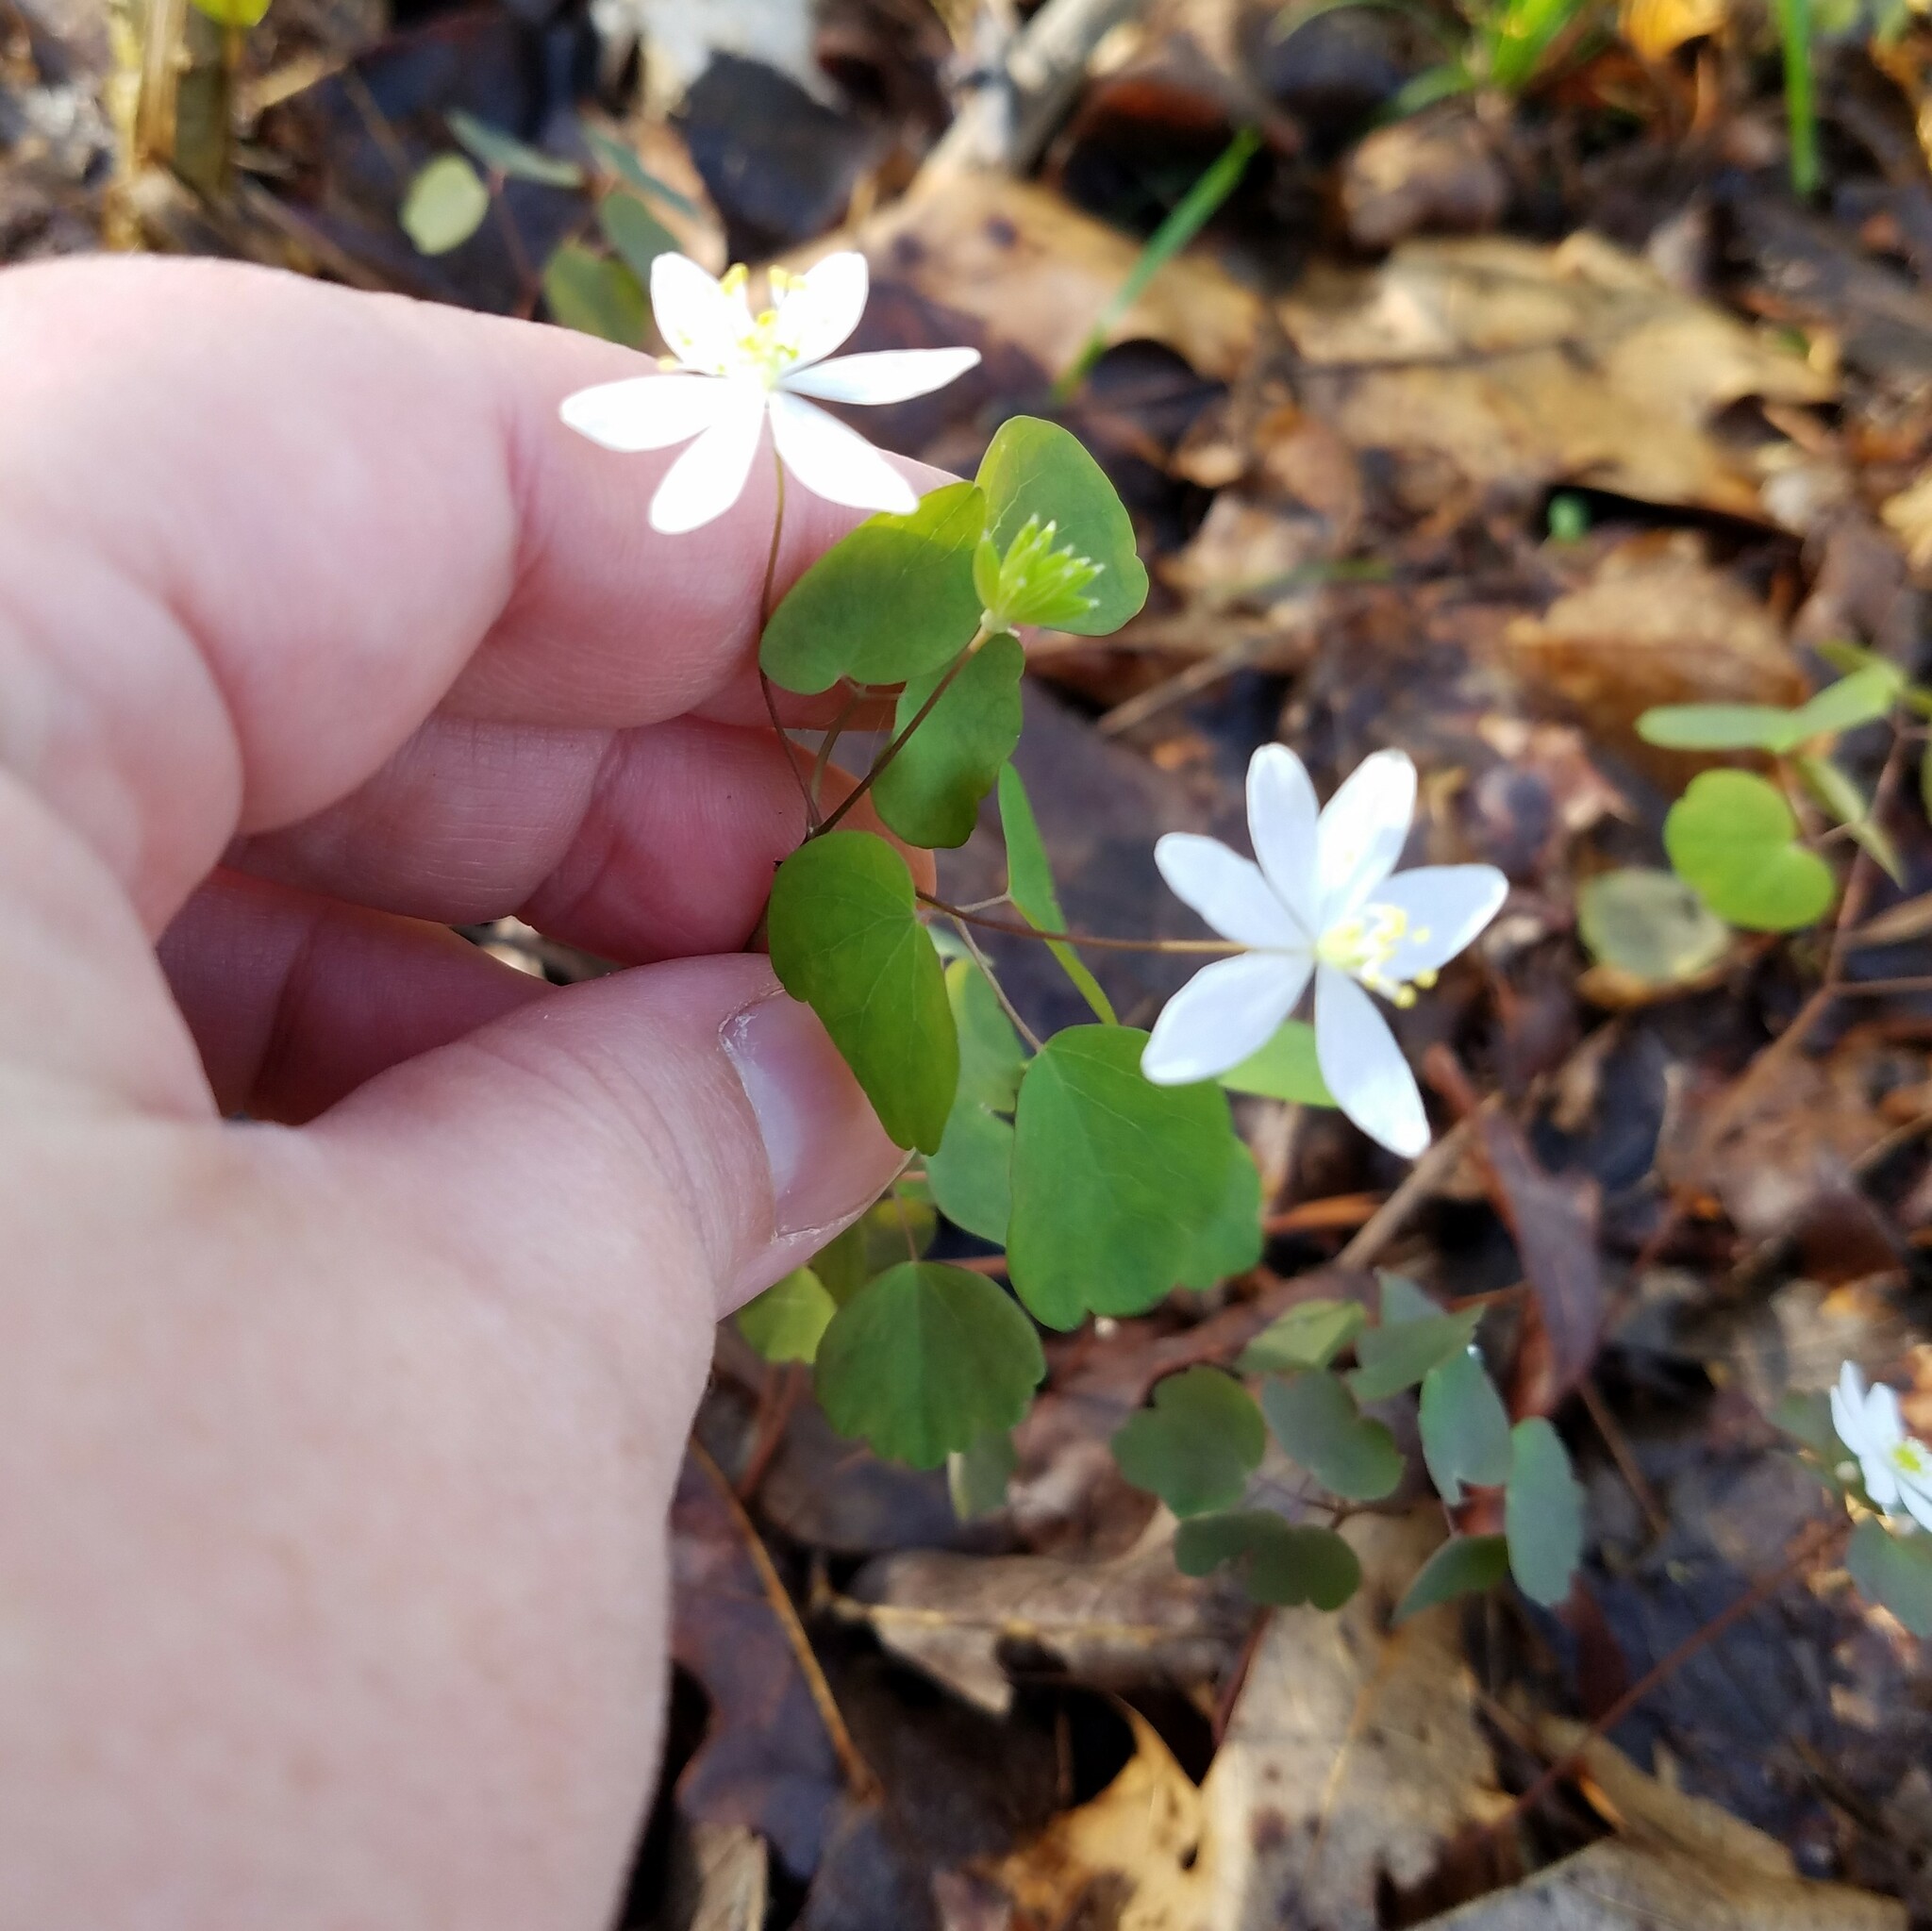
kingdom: Plantae
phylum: Tracheophyta
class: Magnoliopsida
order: Ranunculales
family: Ranunculaceae
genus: Thalictrum
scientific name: Thalictrum thalictroides
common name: Rue-anemone
